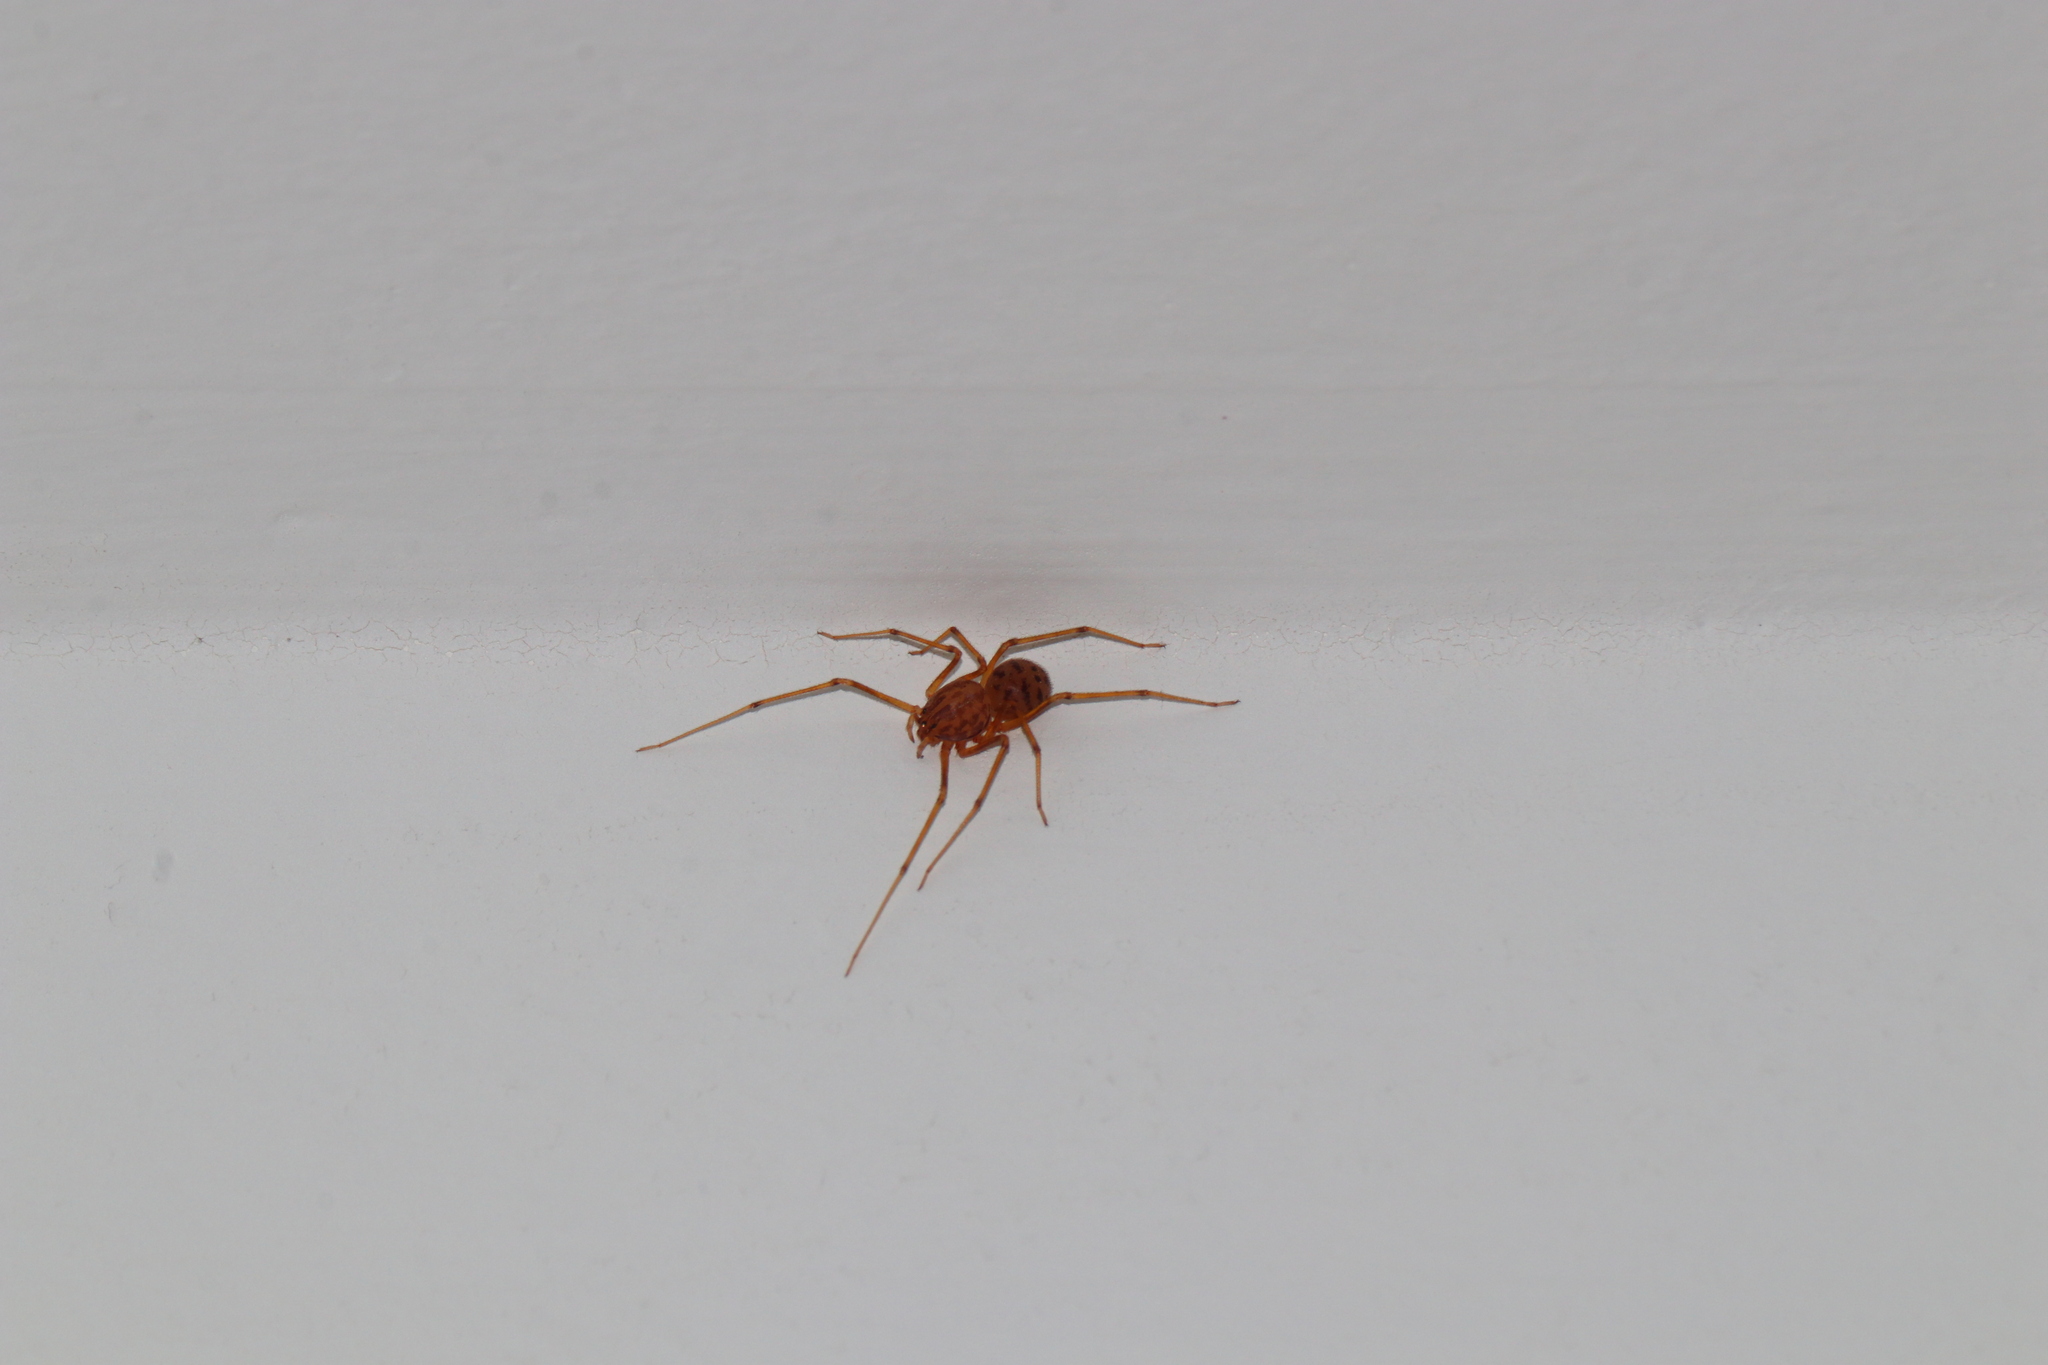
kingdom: Animalia
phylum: Arthropoda
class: Arachnida
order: Araneae
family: Scytodidae
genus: Scytodes
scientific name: Scytodes univittata
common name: Spitting spider
